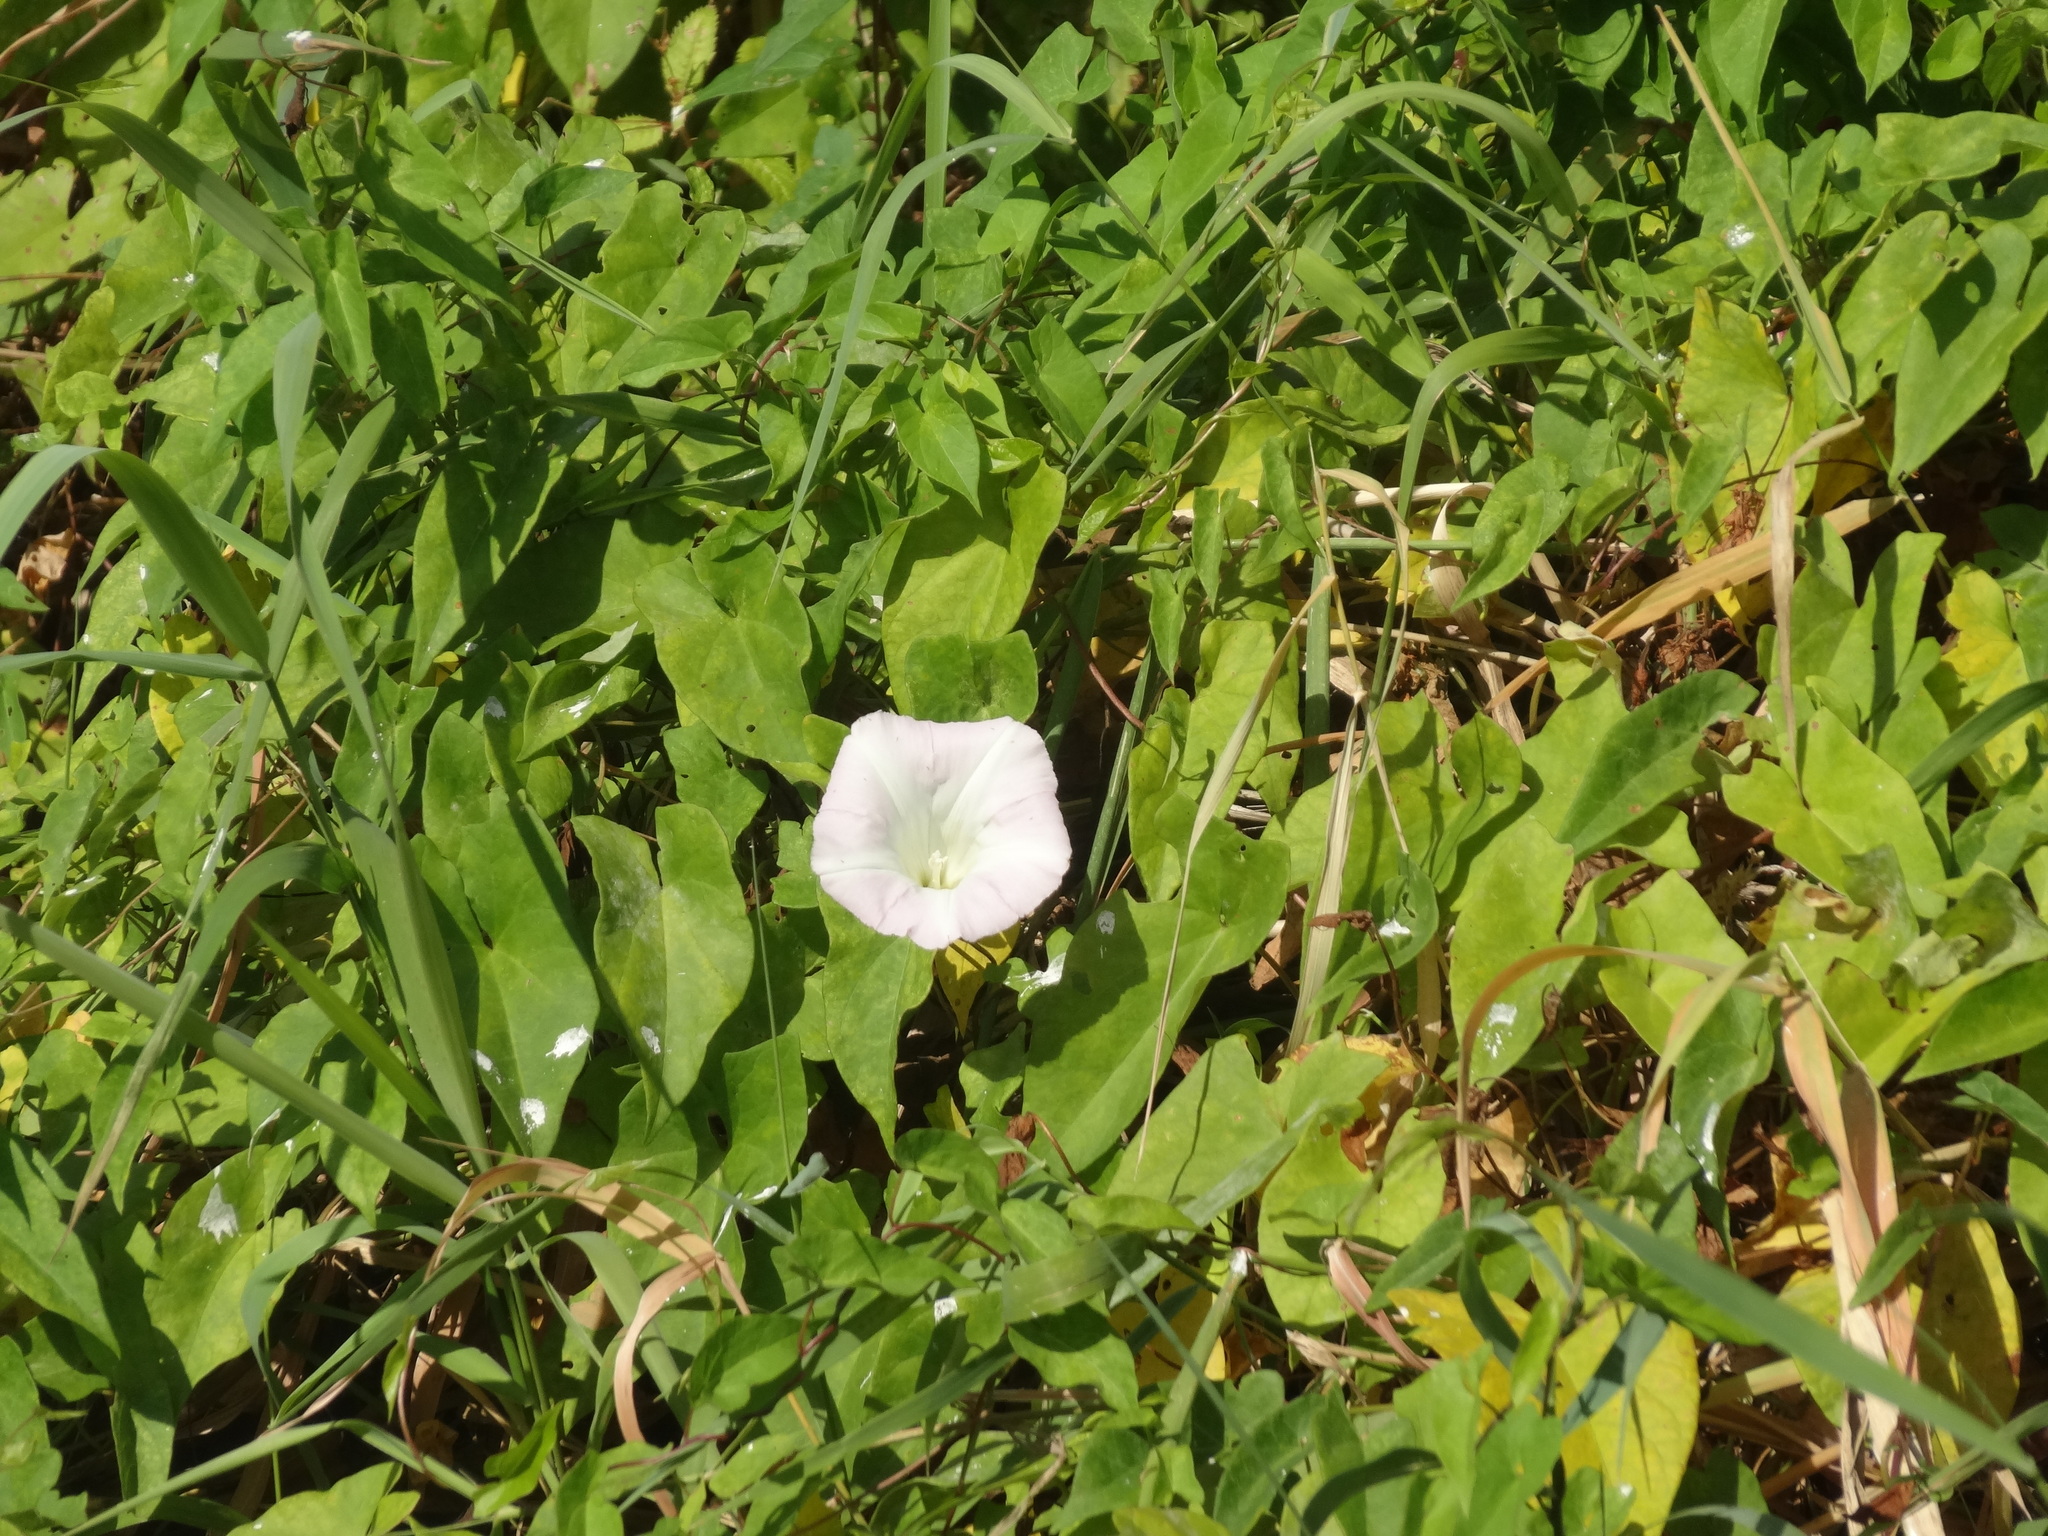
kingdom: Plantae
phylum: Tracheophyta
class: Magnoliopsida
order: Solanales
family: Convolvulaceae
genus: Calystegia
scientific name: Calystegia
